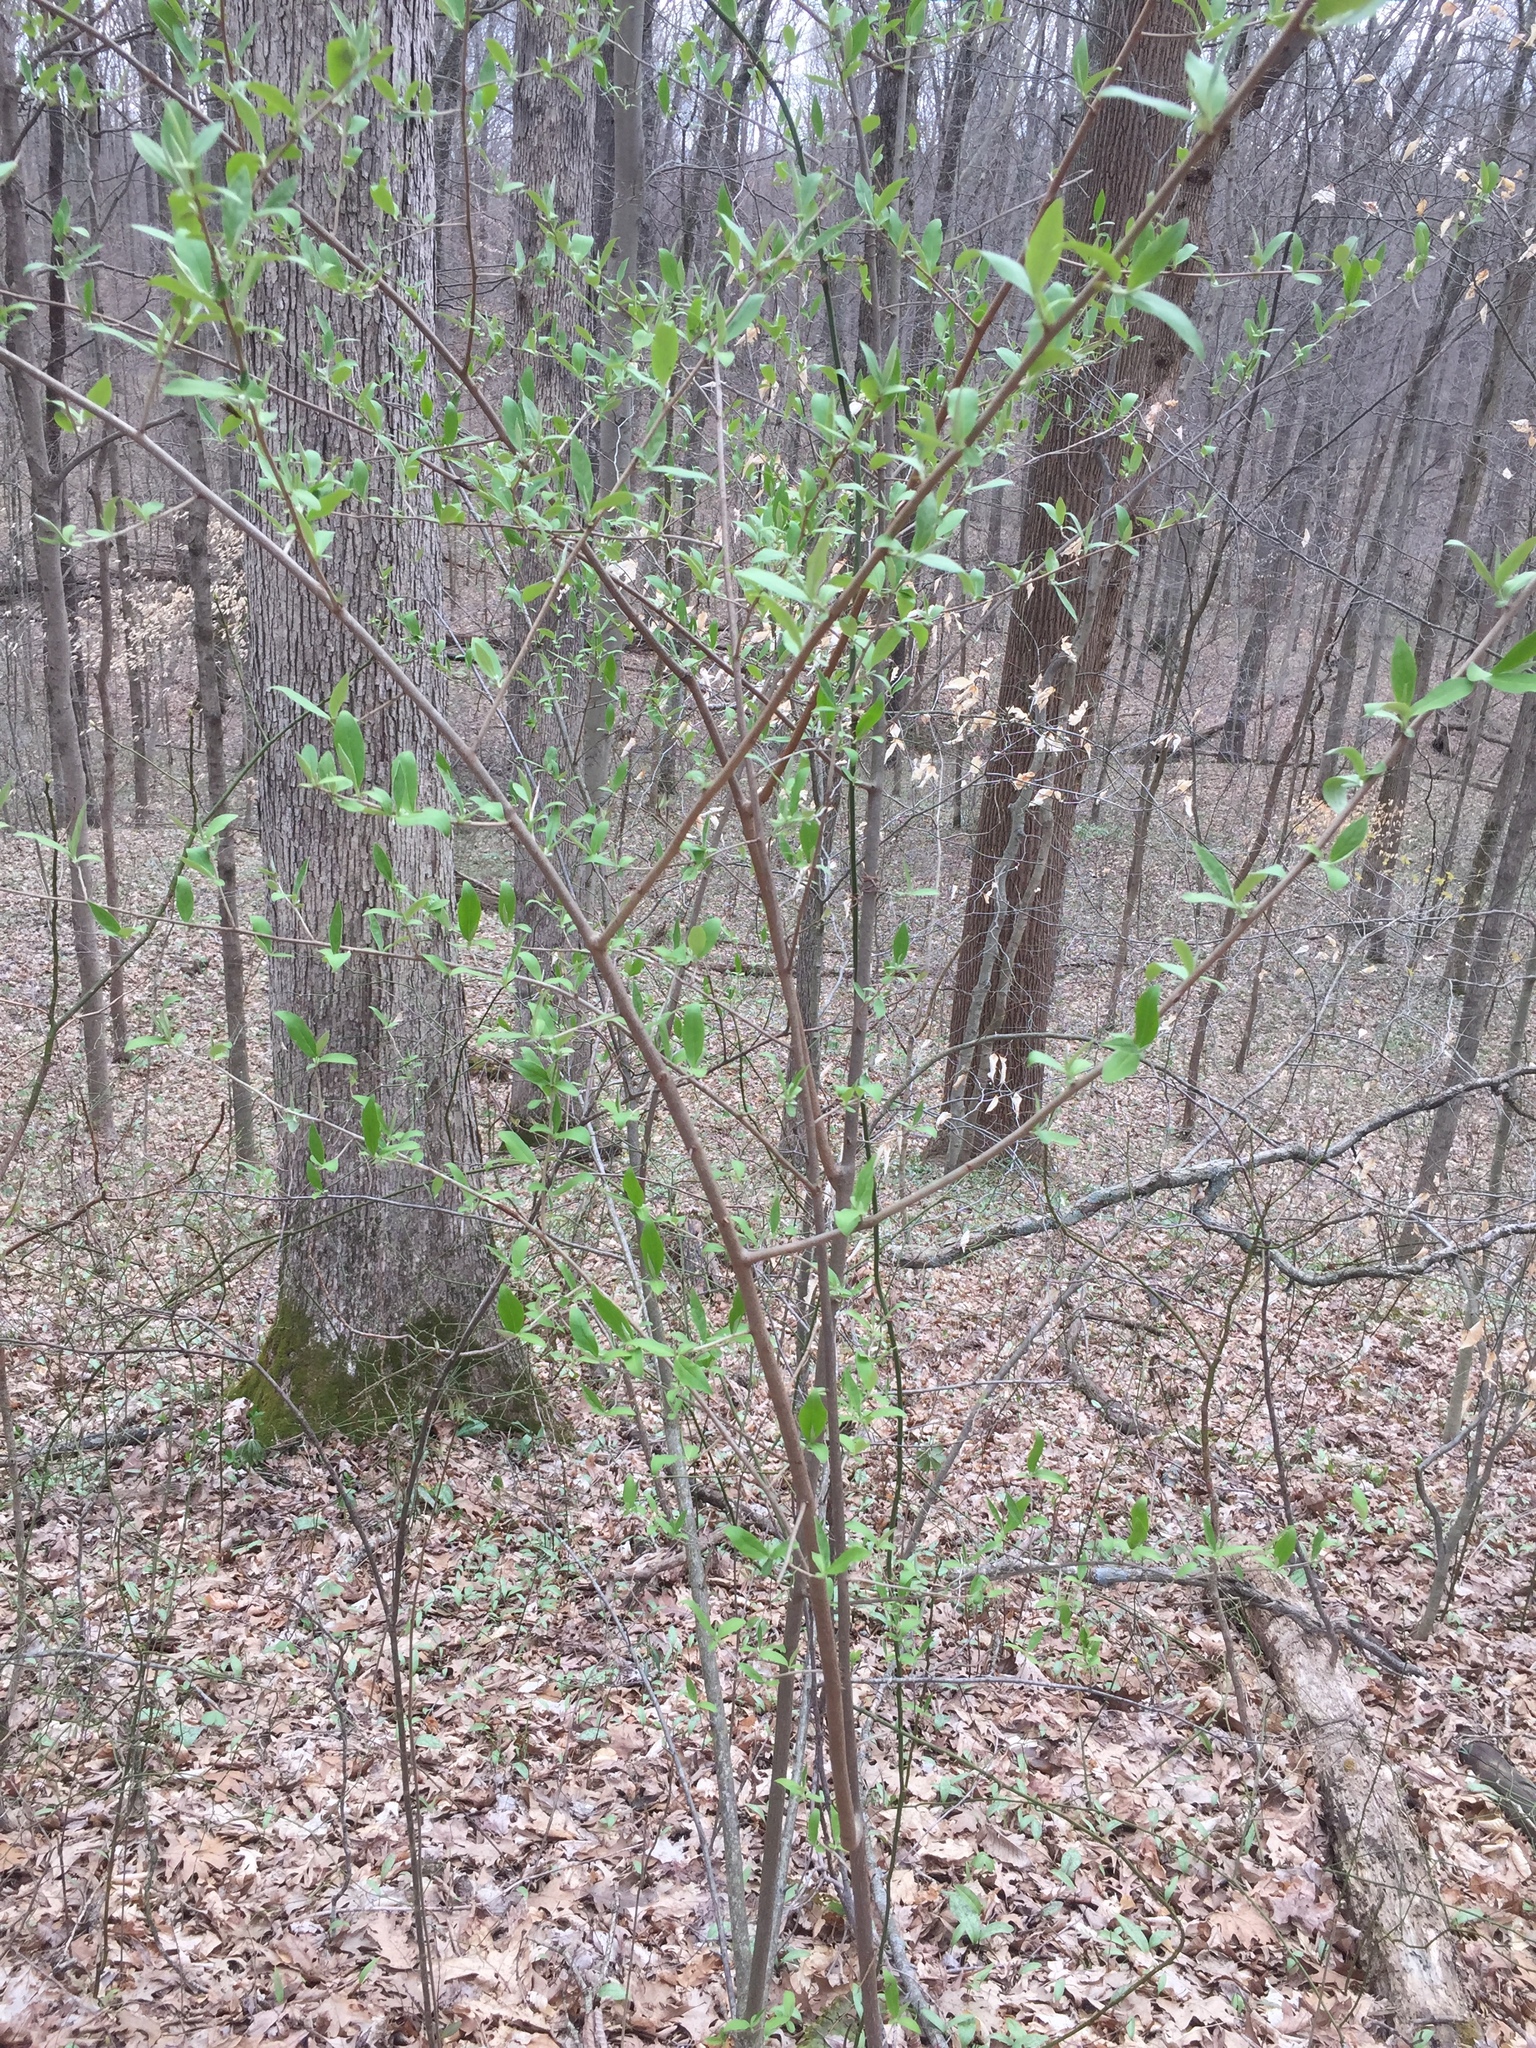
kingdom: Plantae
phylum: Tracheophyta
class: Magnoliopsida
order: Rosales
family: Elaeagnaceae
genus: Elaeagnus
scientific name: Elaeagnus umbellata
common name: Autumn olive
